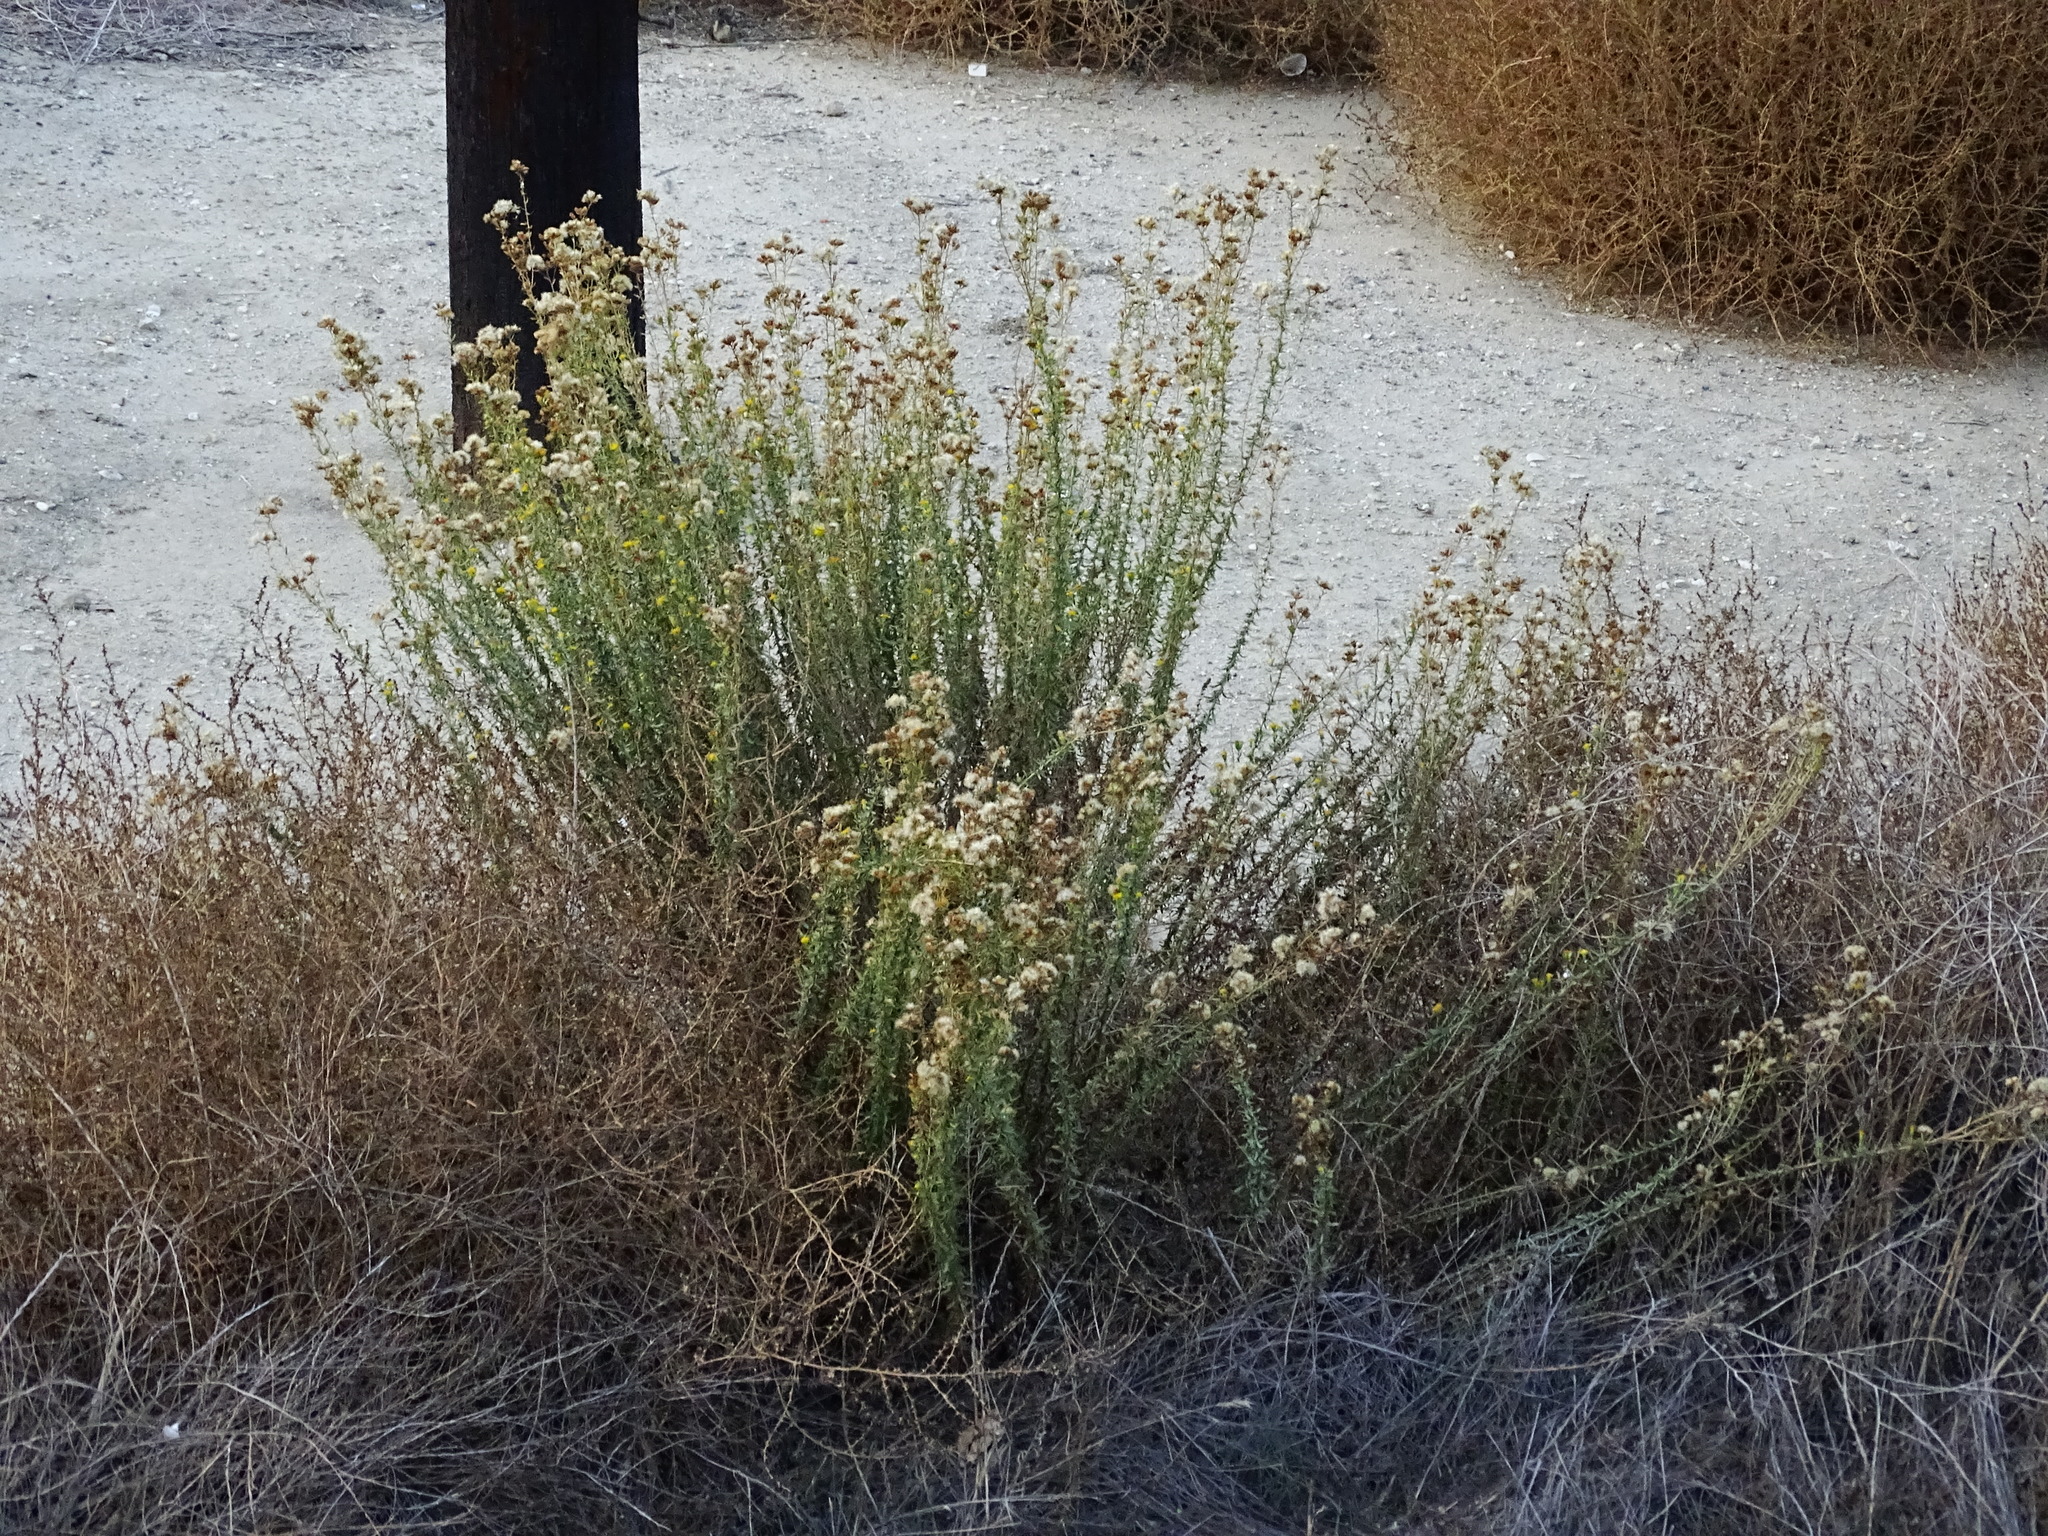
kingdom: Plantae
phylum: Tracheophyta
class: Magnoliopsida
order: Asterales
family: Asteraceae
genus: Isocoma
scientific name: Isocoma menziesii
